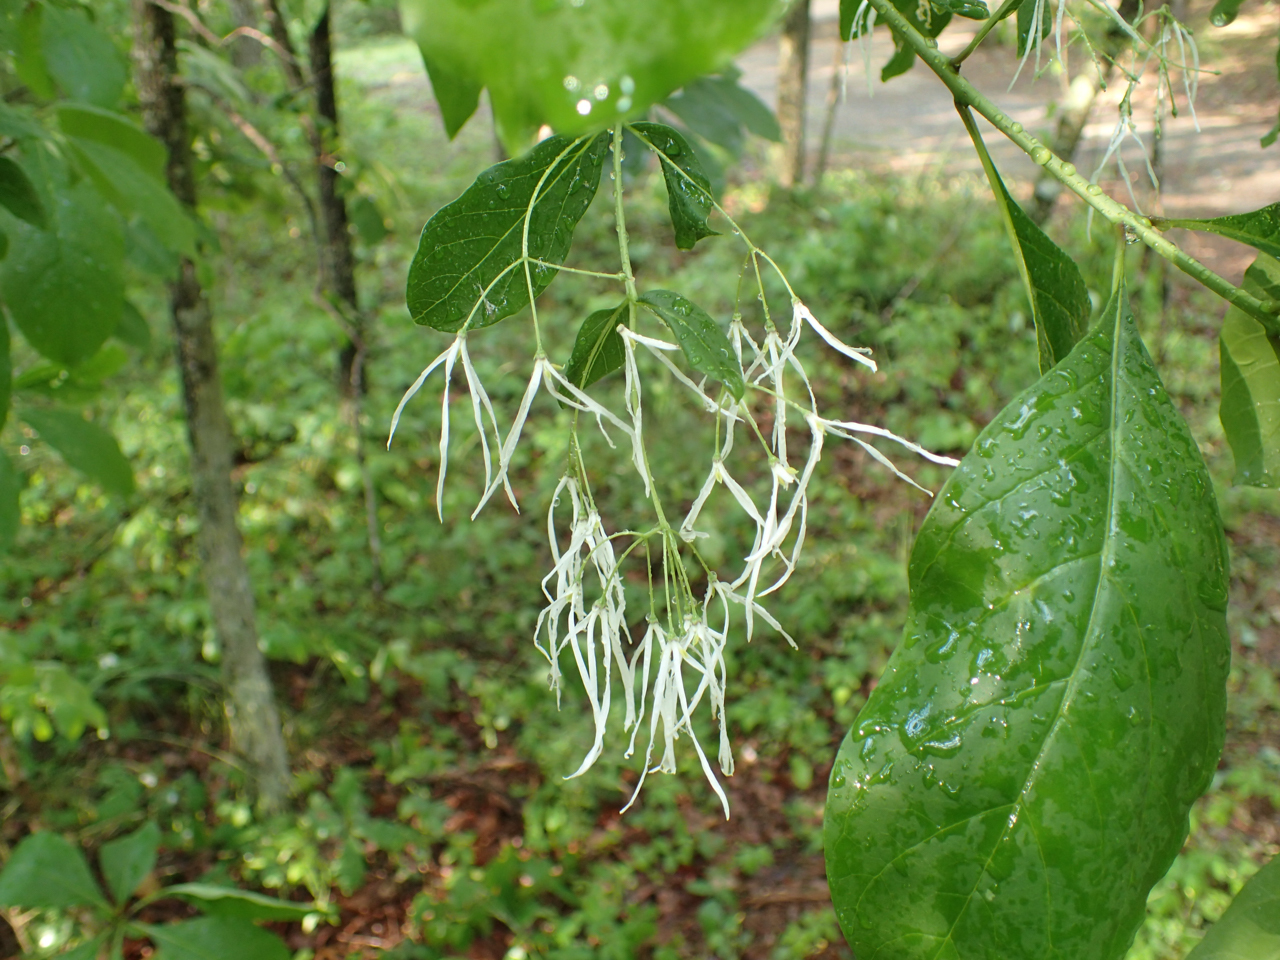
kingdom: Plantae
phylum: Tracheophyta
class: Magnoliopsida
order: Lamiales
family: Oleaceae
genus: Chionanthus
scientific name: Chionanthus virginicus
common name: American fringetree
